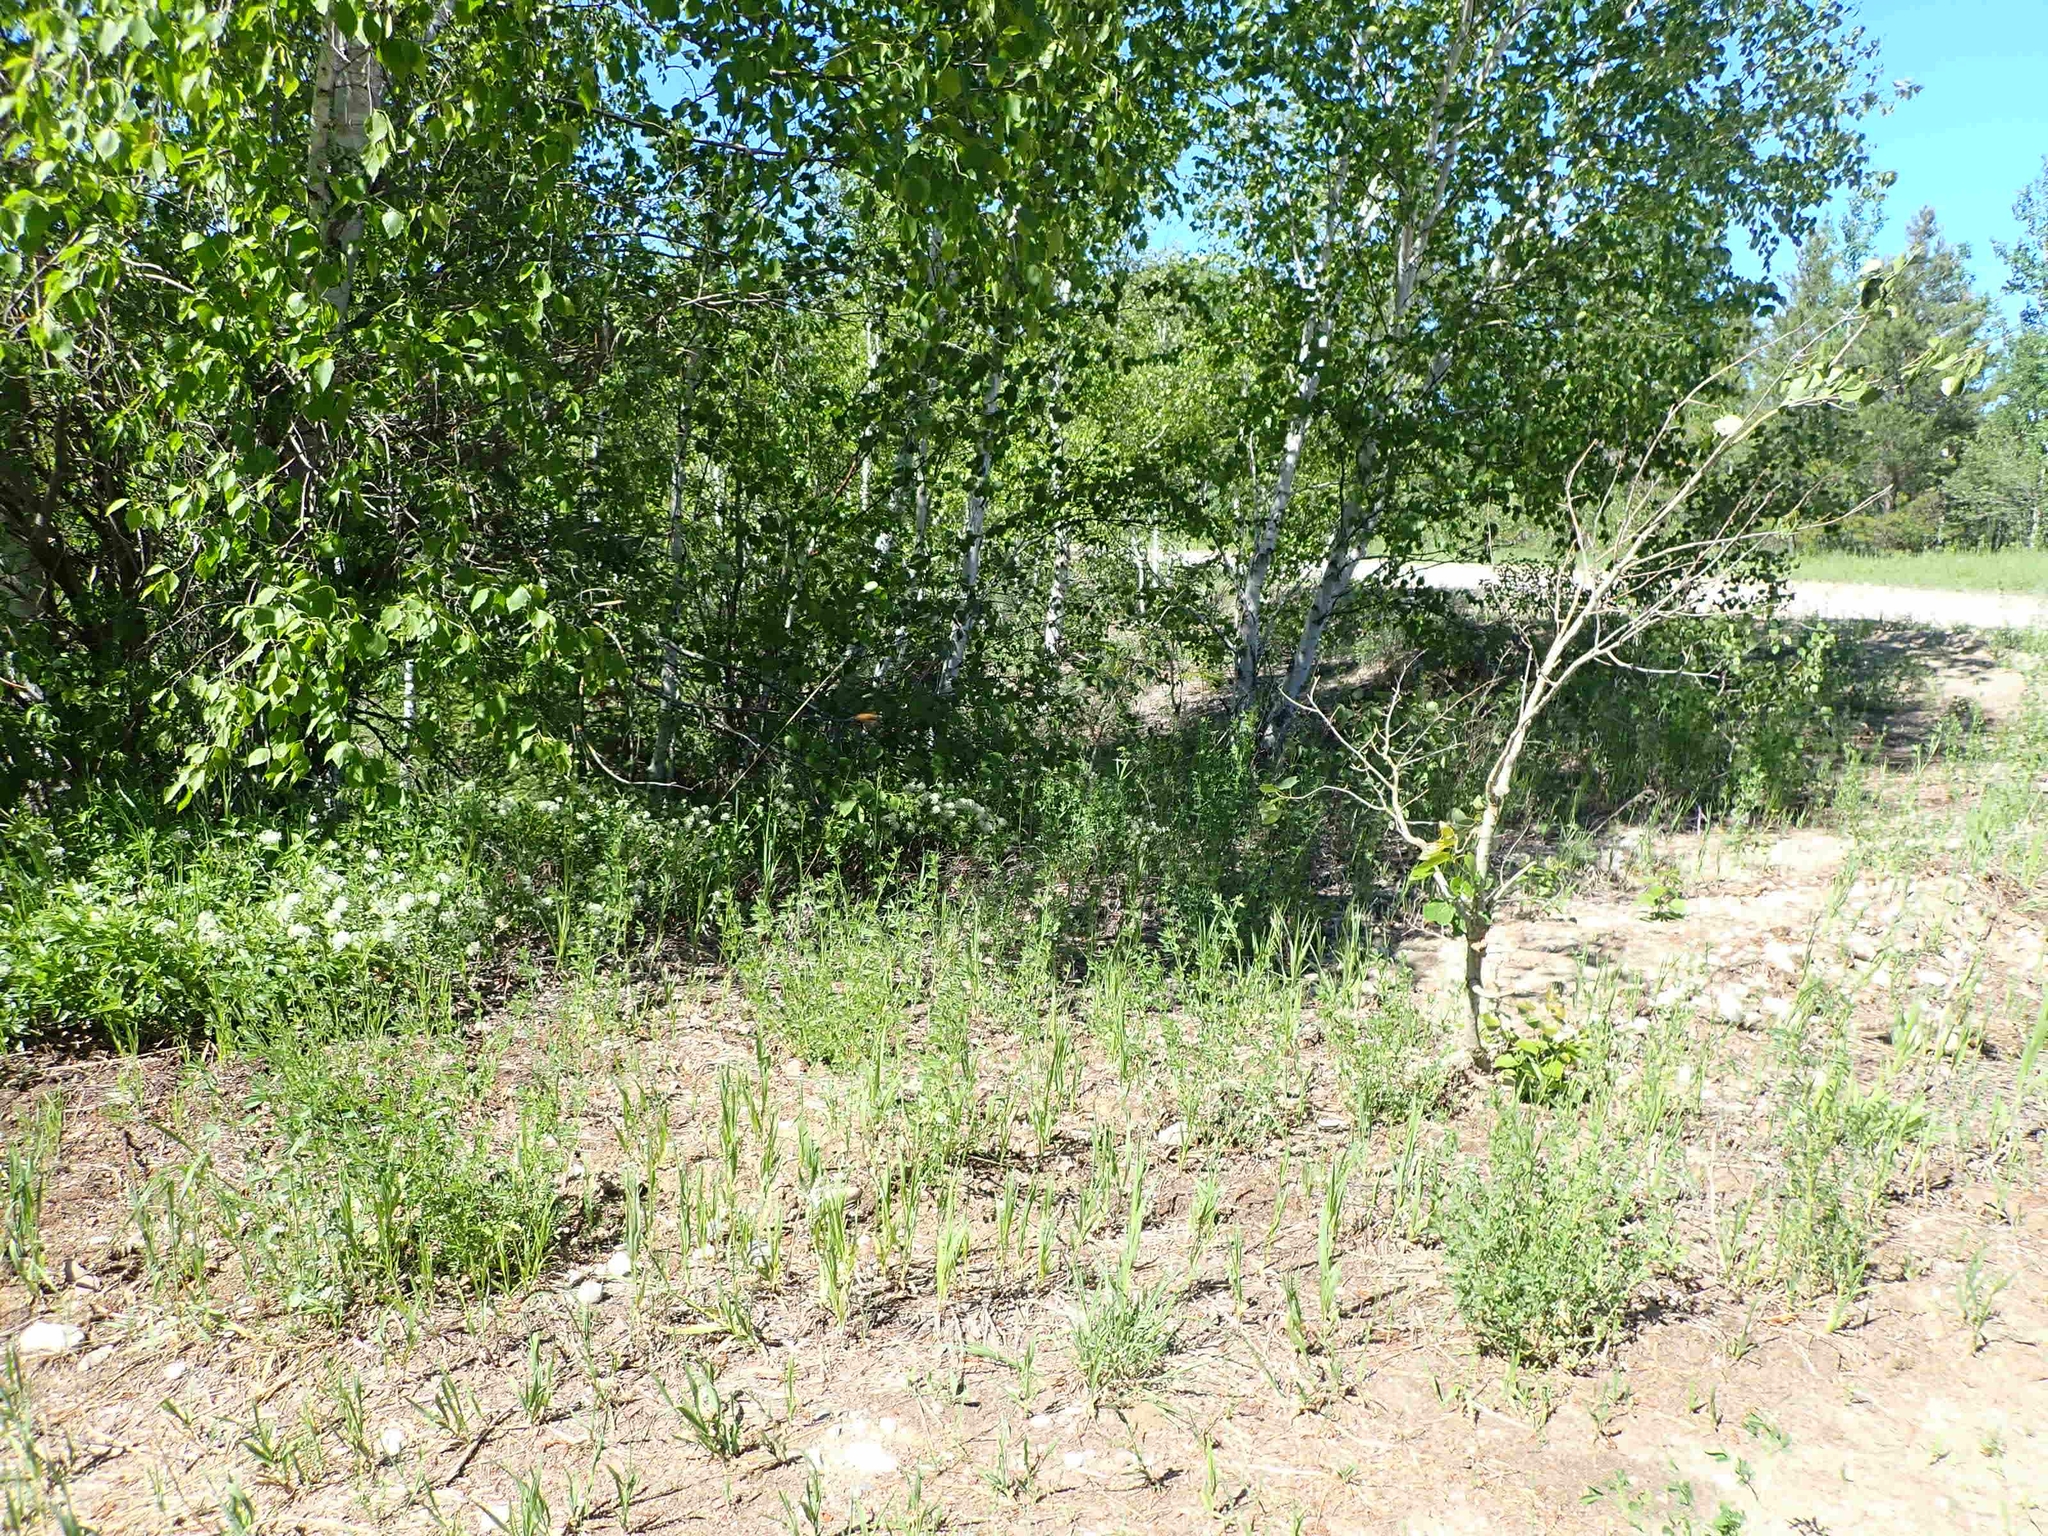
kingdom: Plantae
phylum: Tracheophyta
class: Magnoliopsida
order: Rosales
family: Rhamnaceae
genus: Ceanothus
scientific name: Ceanothus herbaceus
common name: Inland ceanothus
